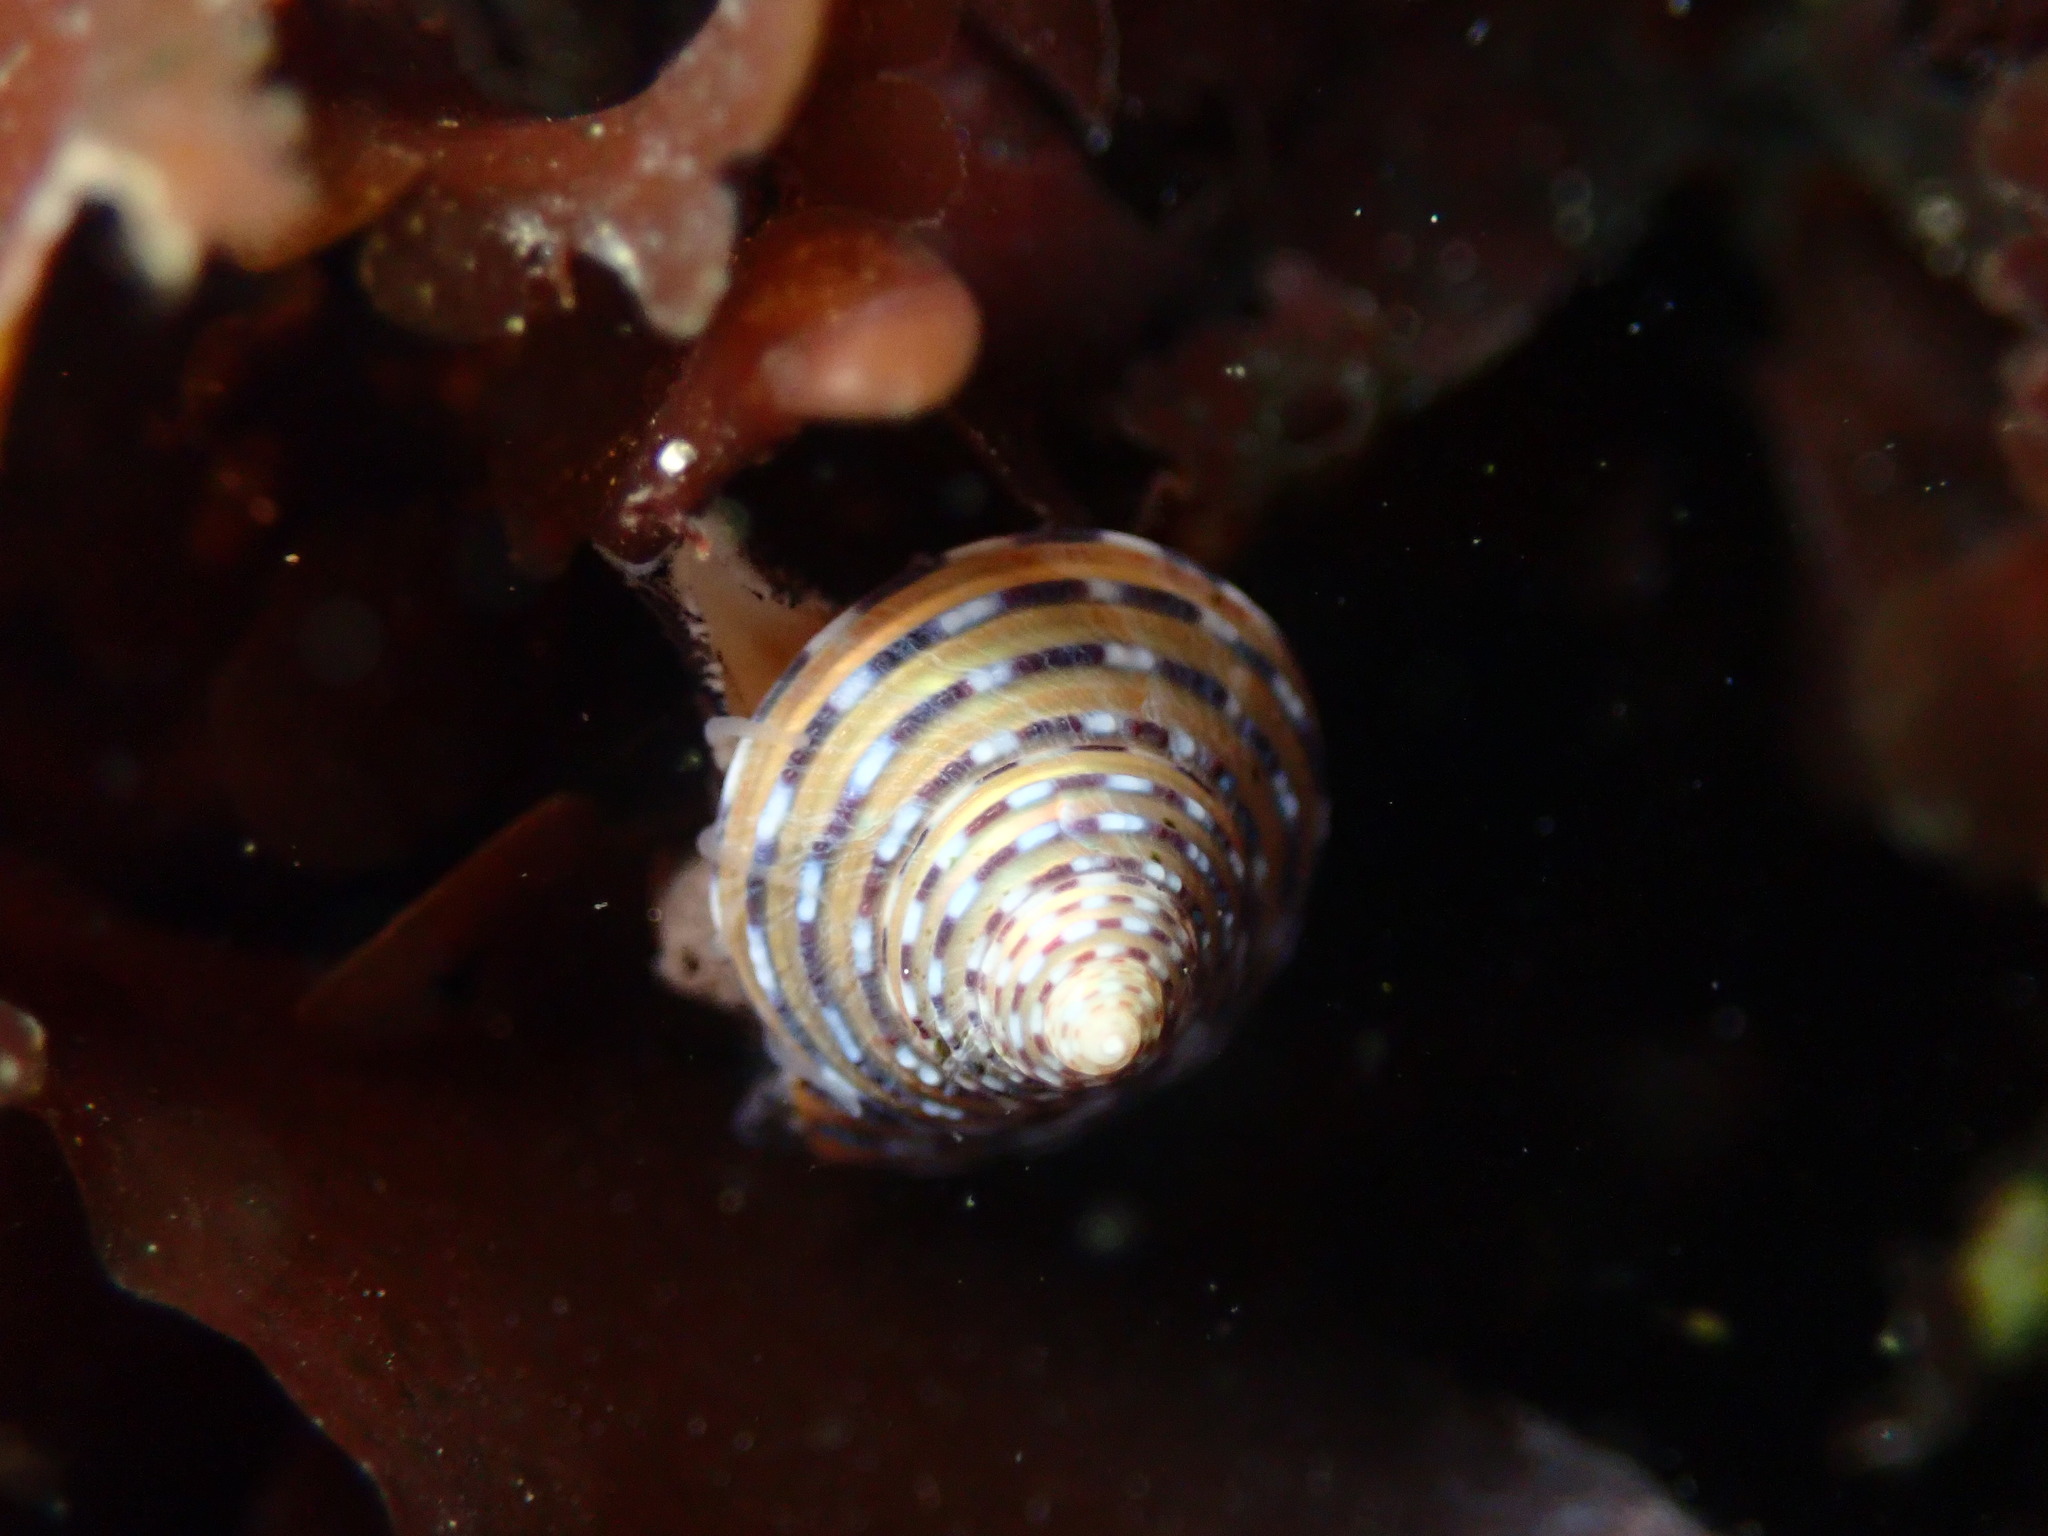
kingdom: Animalia
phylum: Mollusca
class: Gastropoda
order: Trochida
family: Calliostomatidae
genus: Calliostoma
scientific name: Calliostoma tricolor
